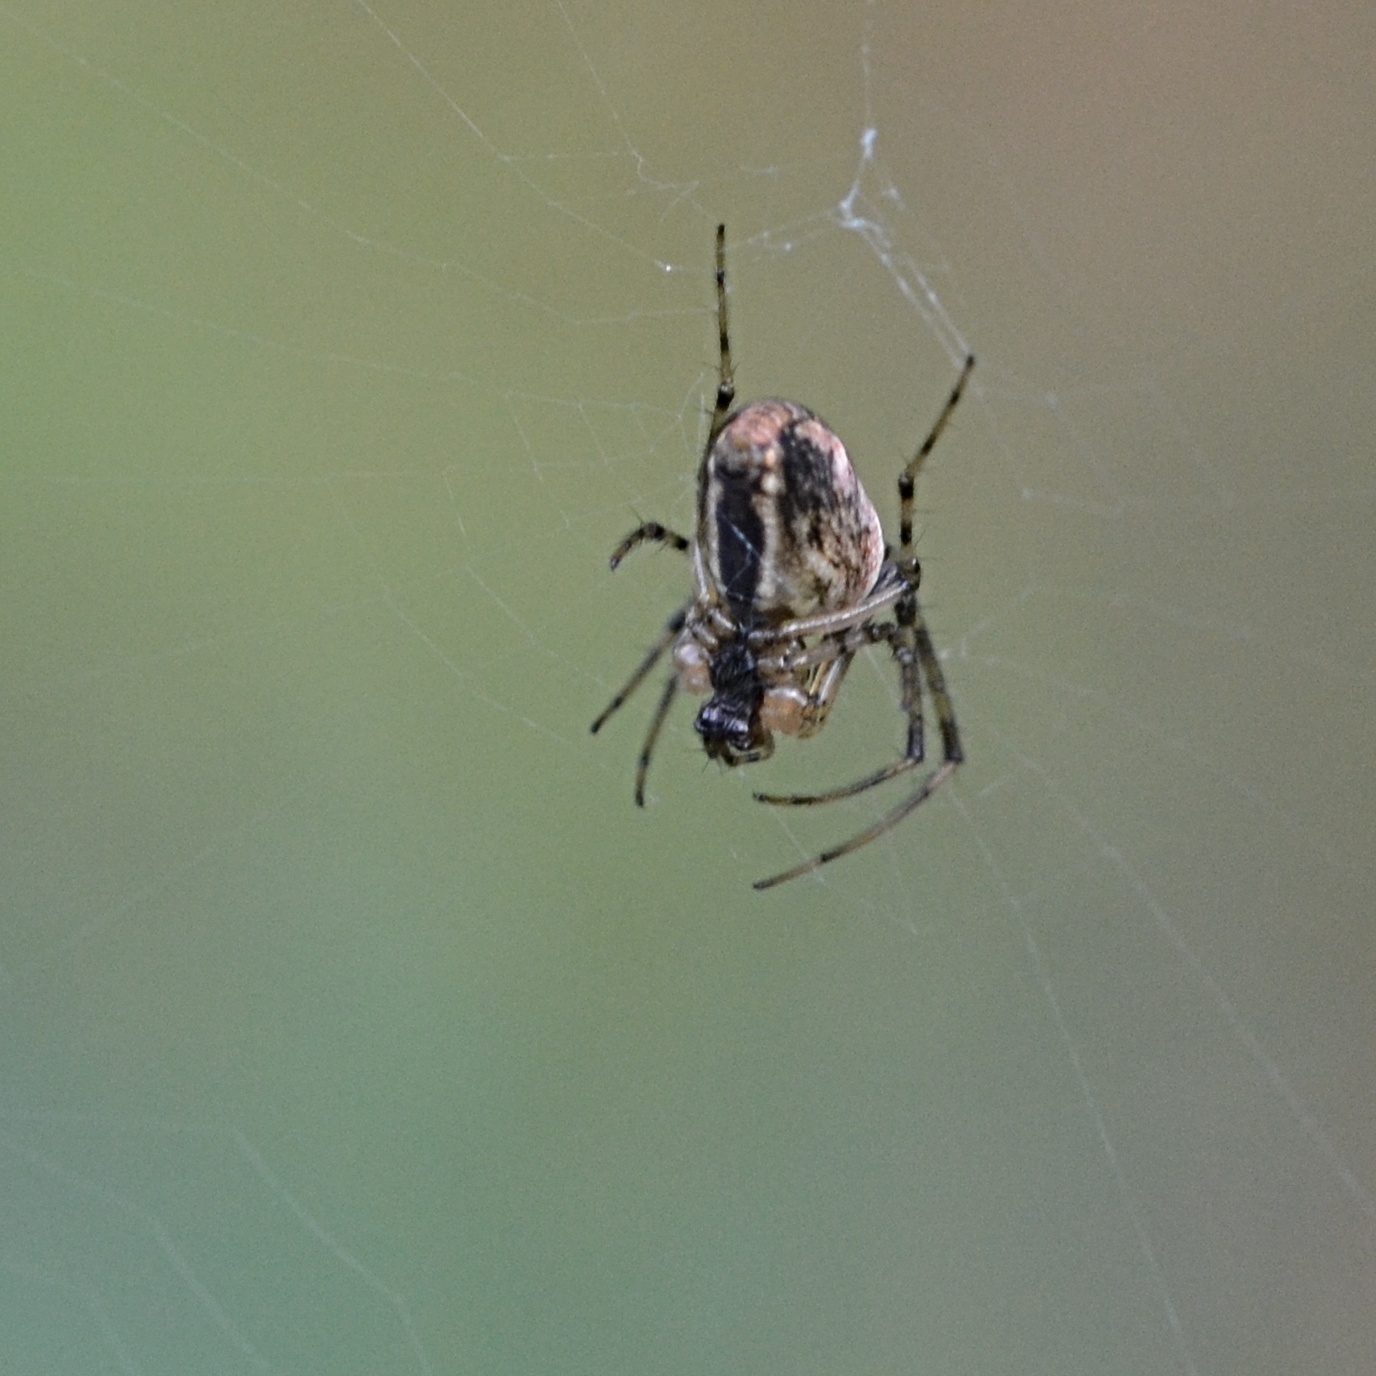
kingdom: Animalia
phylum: Arthropoda
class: Arachnida
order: Araneae
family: Tetragnathidae
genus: Metellina
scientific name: Metellina segmentata
